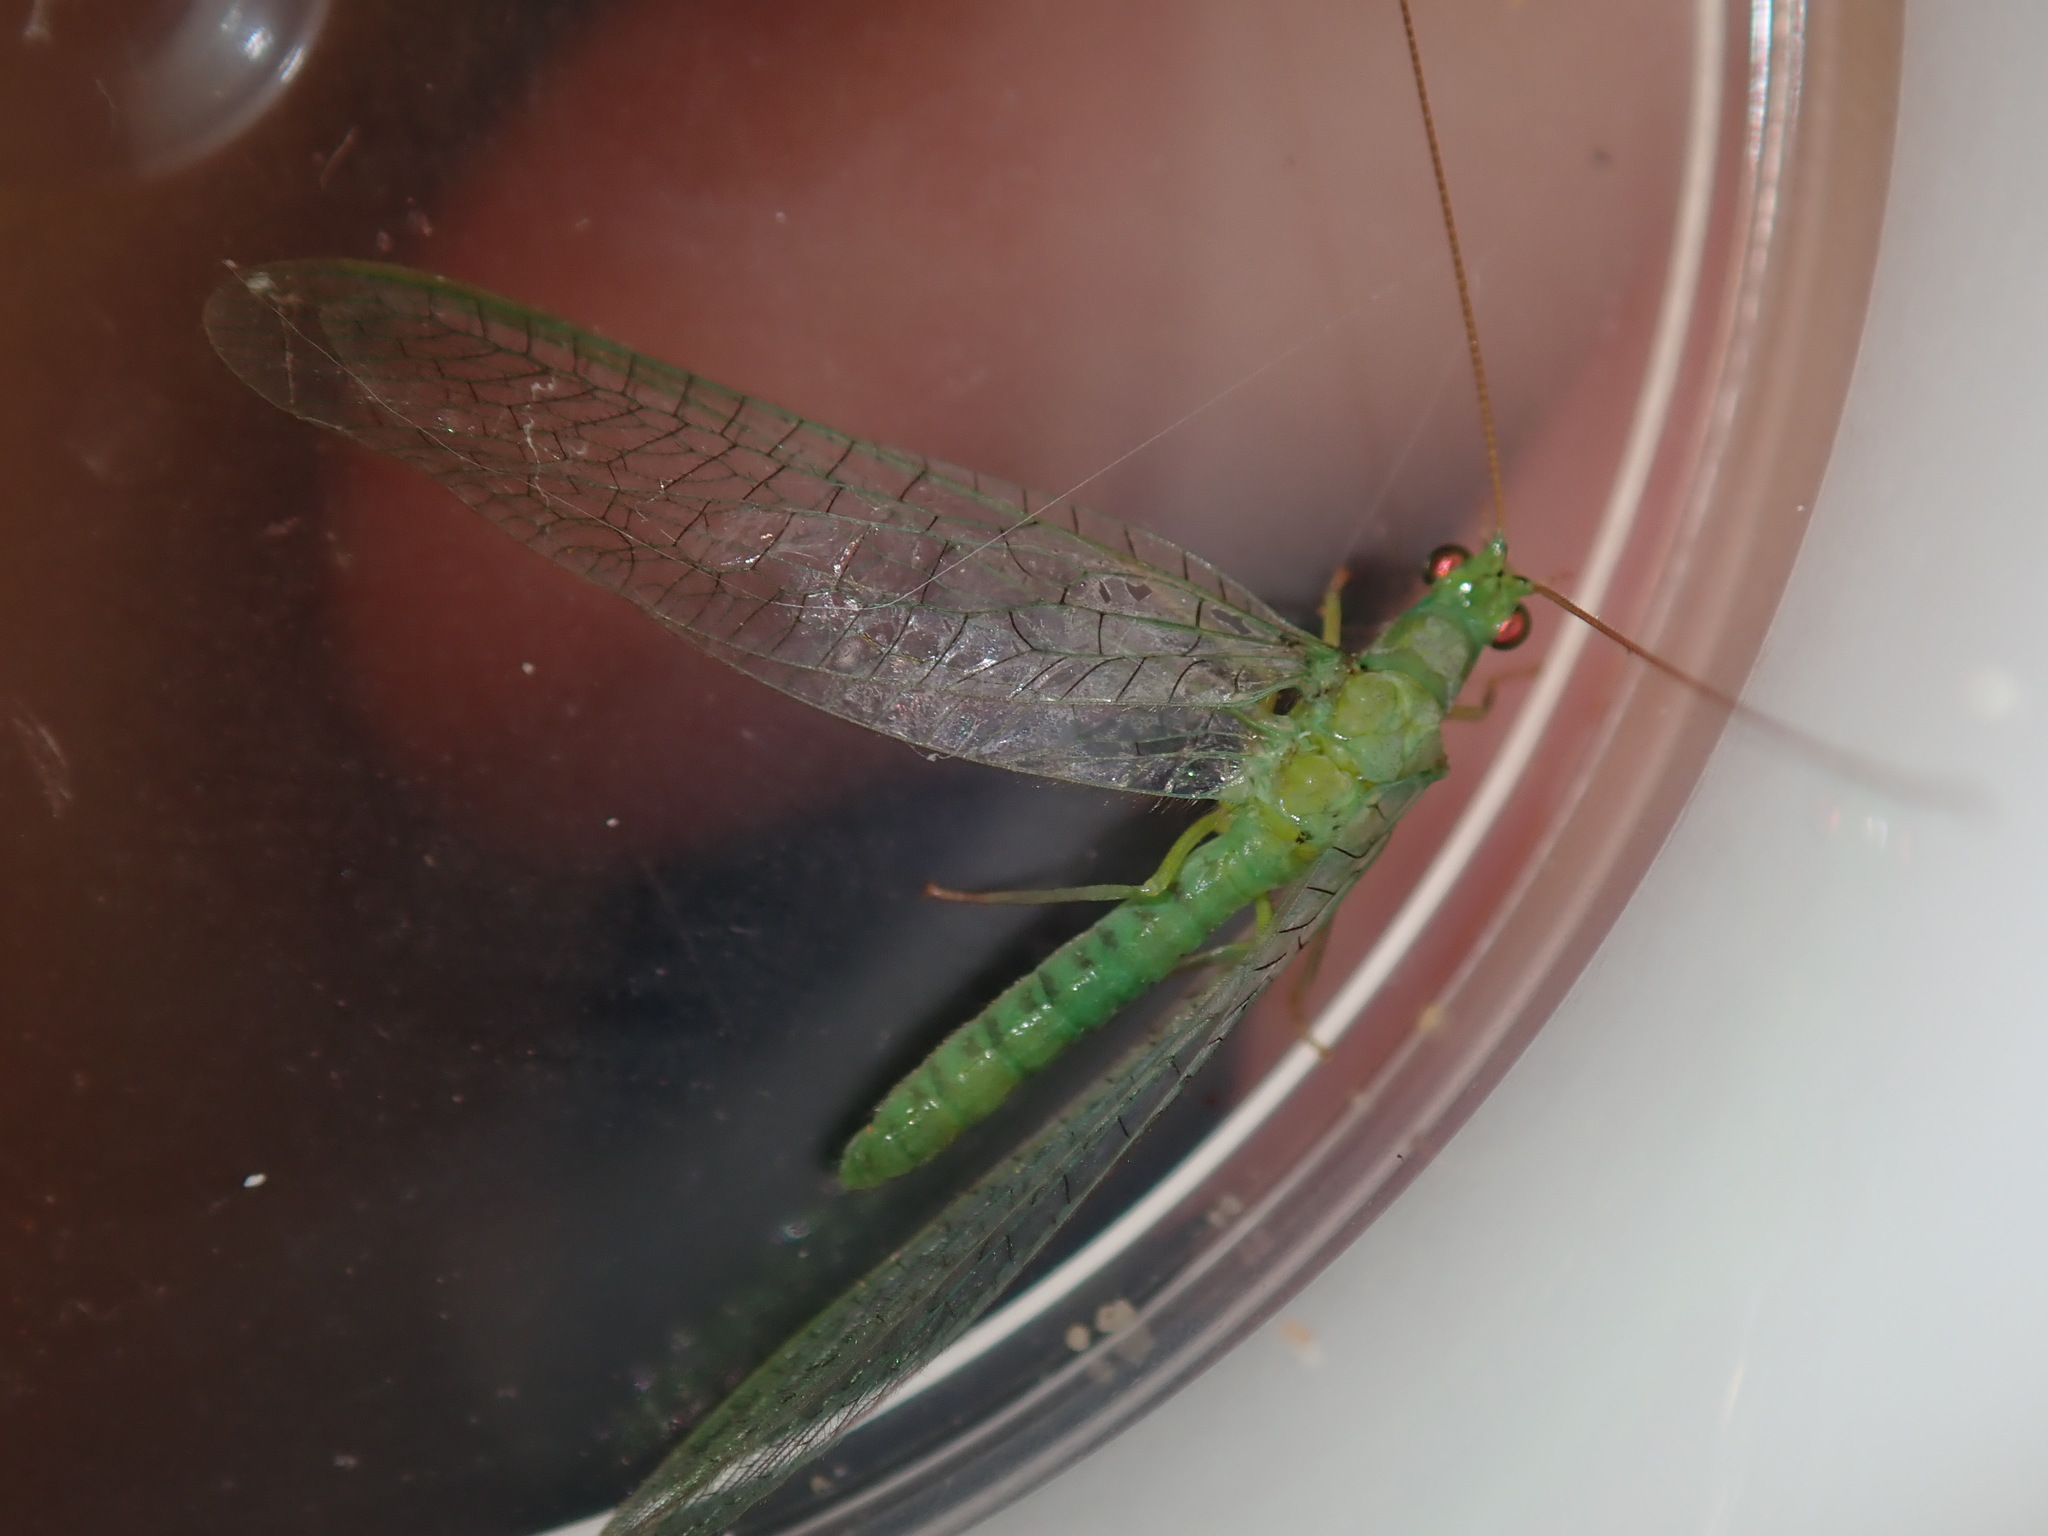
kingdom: Animalia
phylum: Arthropoda
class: Insecta
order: Neuroptera
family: Chrysopidae
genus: Mallada
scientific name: Mallada signatus
